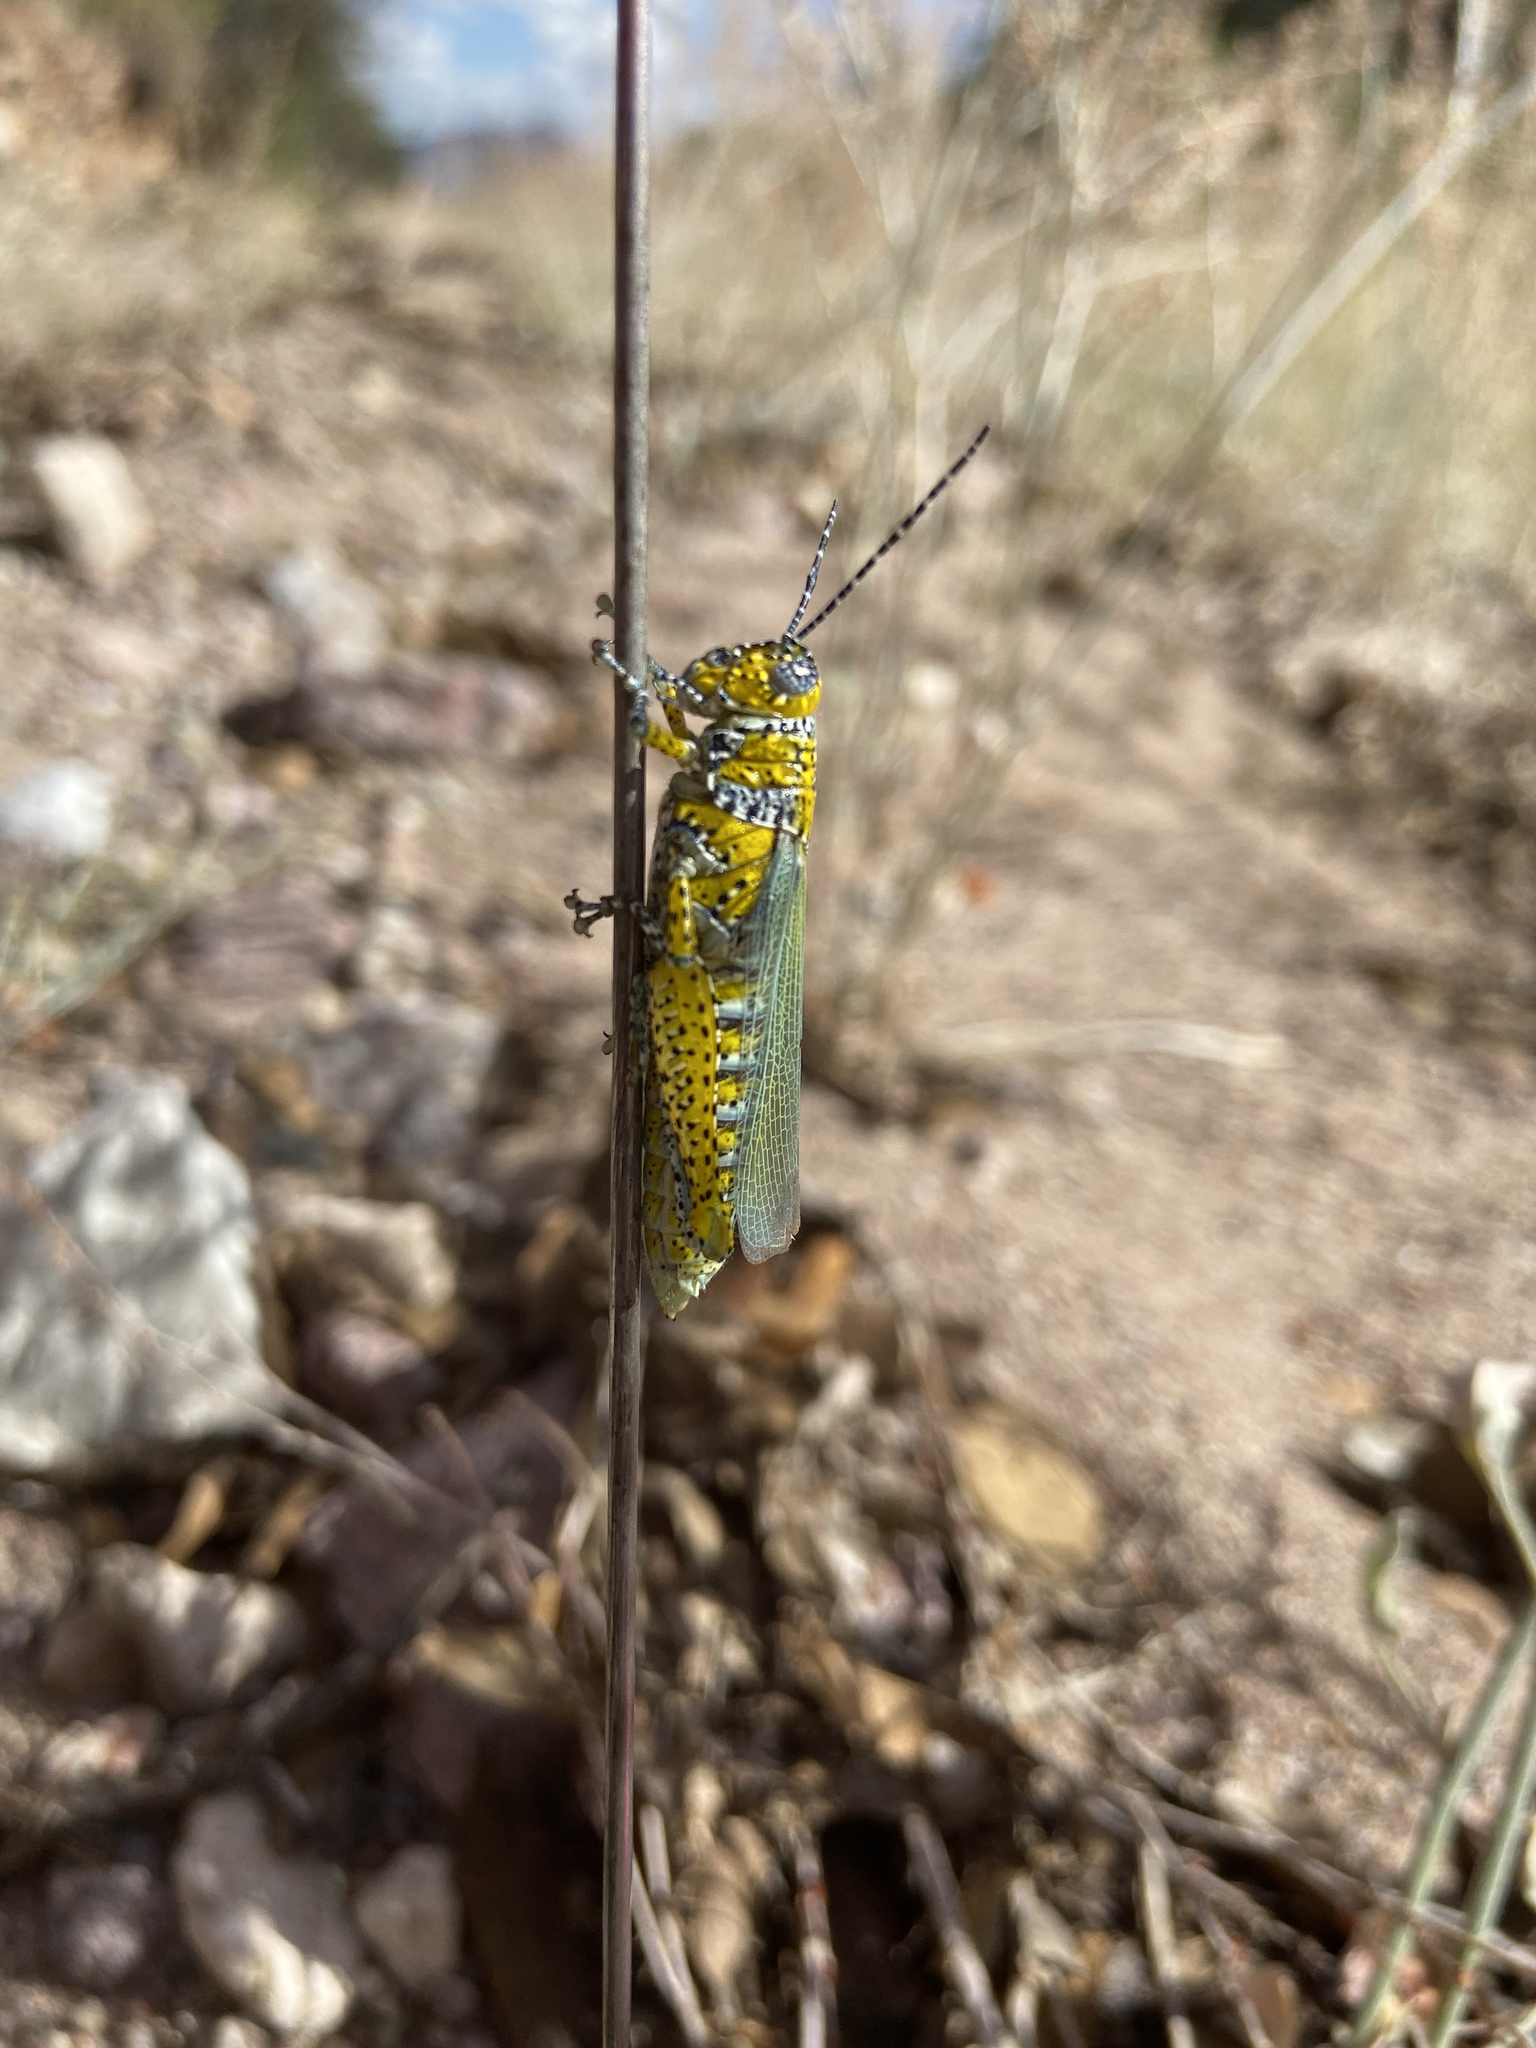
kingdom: Animalia
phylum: Arthropoda
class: Insecta
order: Orthoptera
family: Acrididae
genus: Poecilotettix
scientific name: Poecilotettix pantherinus
